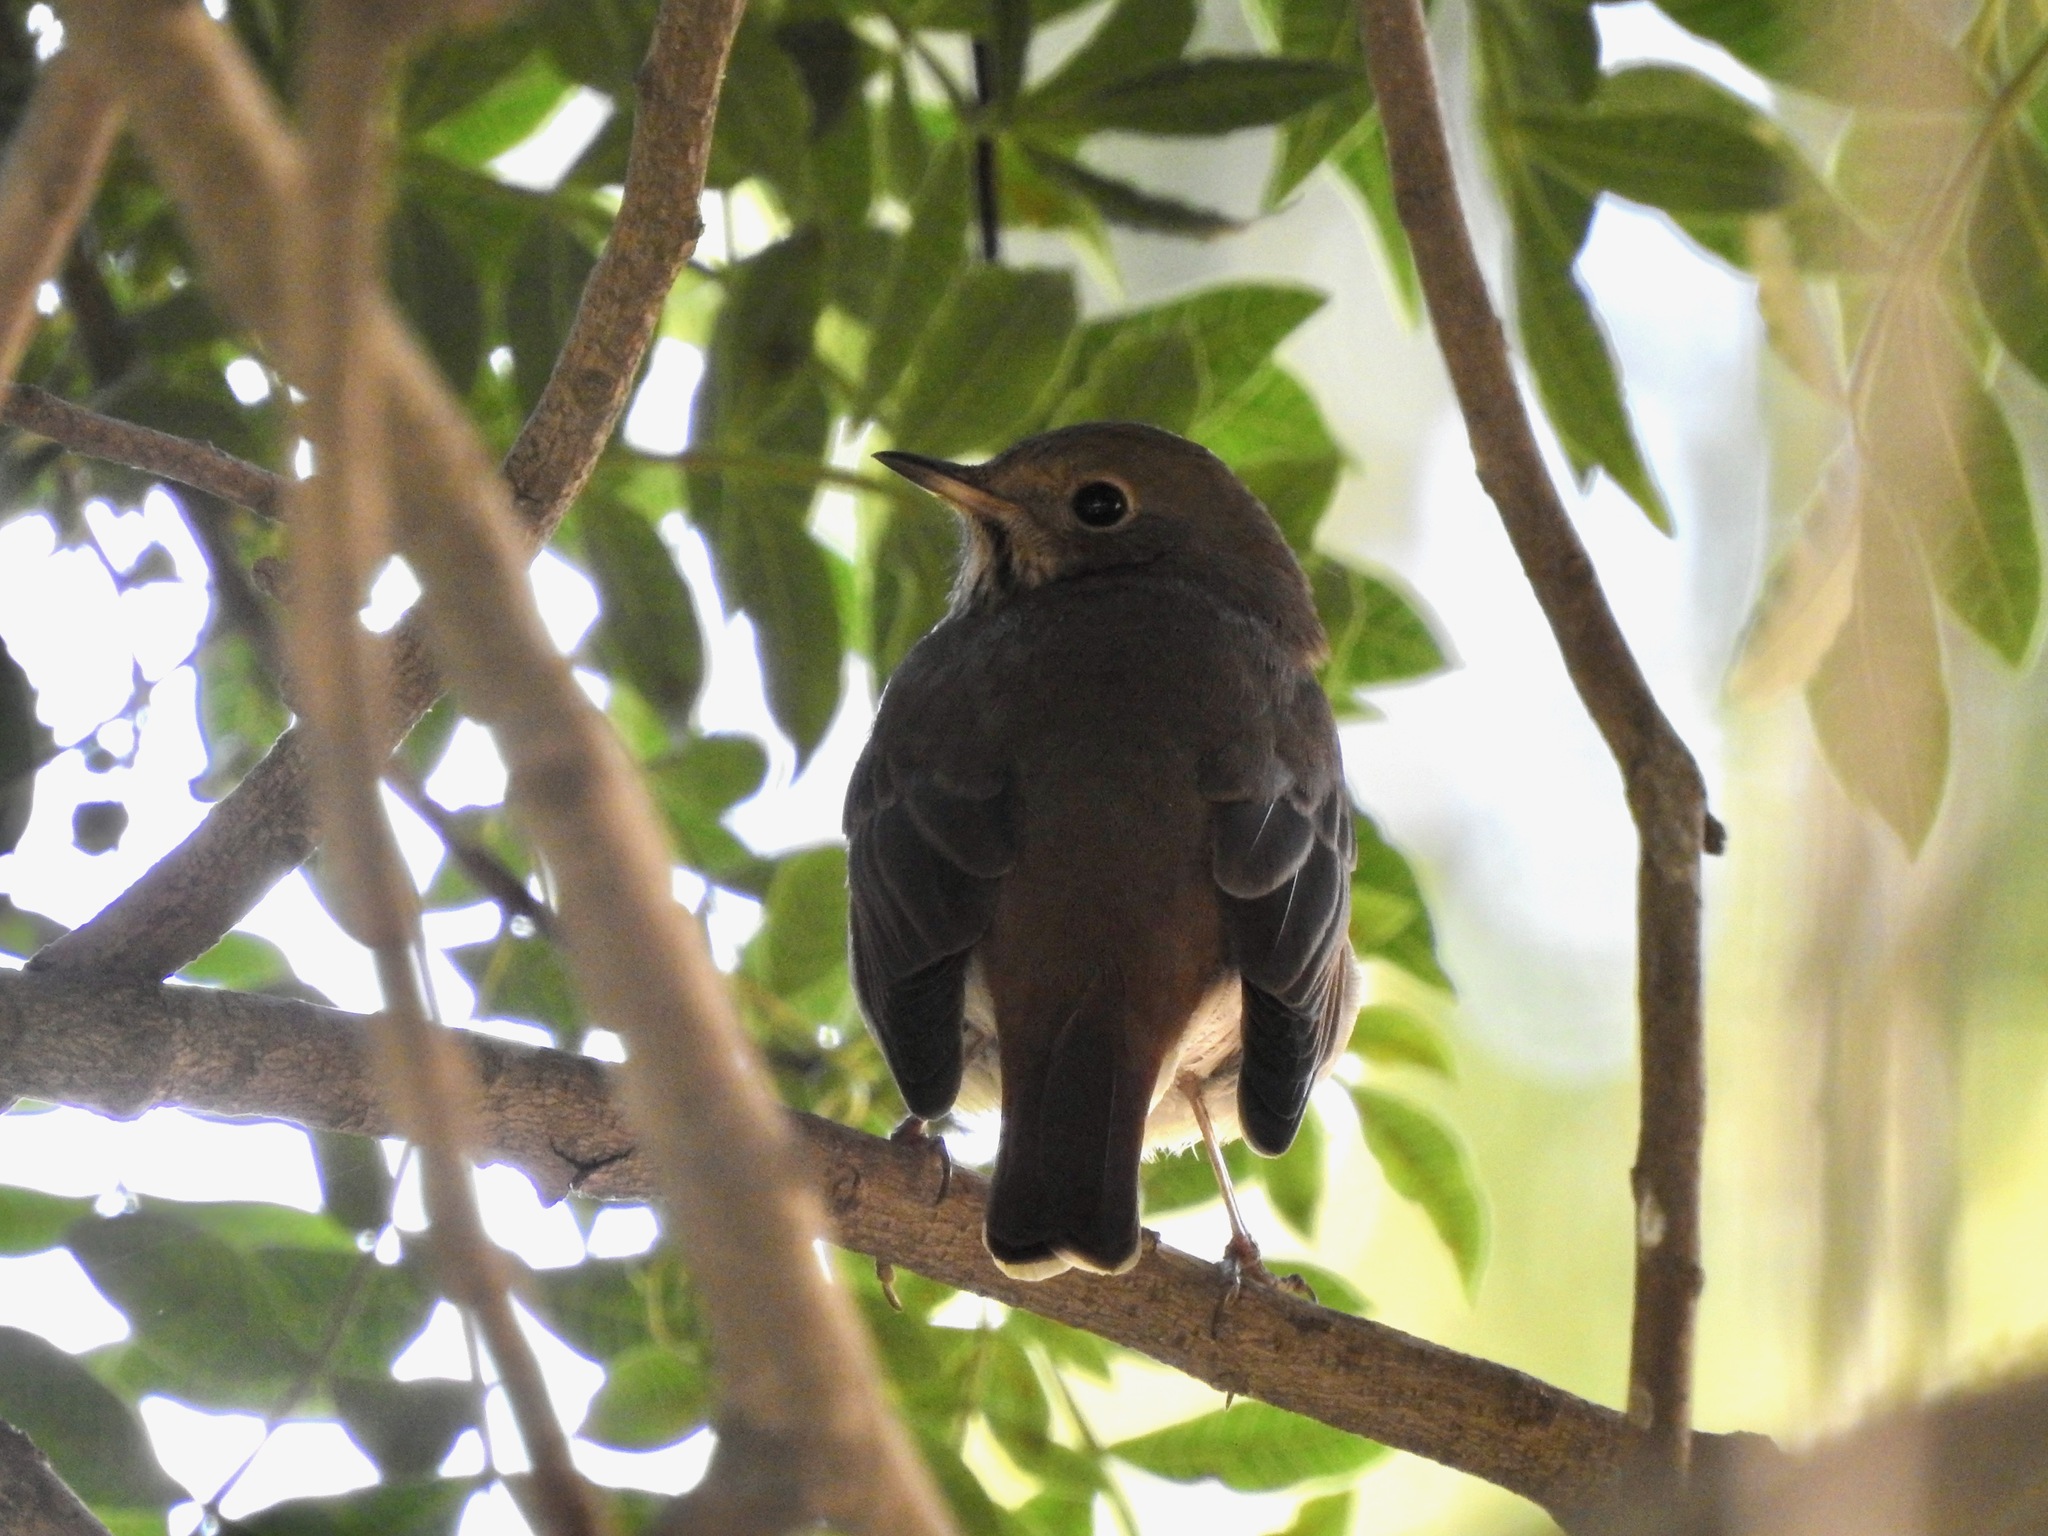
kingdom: Animalia
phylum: Chordata
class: Aves
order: Passeriformes
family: Turdidae
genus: Catharus
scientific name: Catharus guttatus
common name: Hermit thrush
